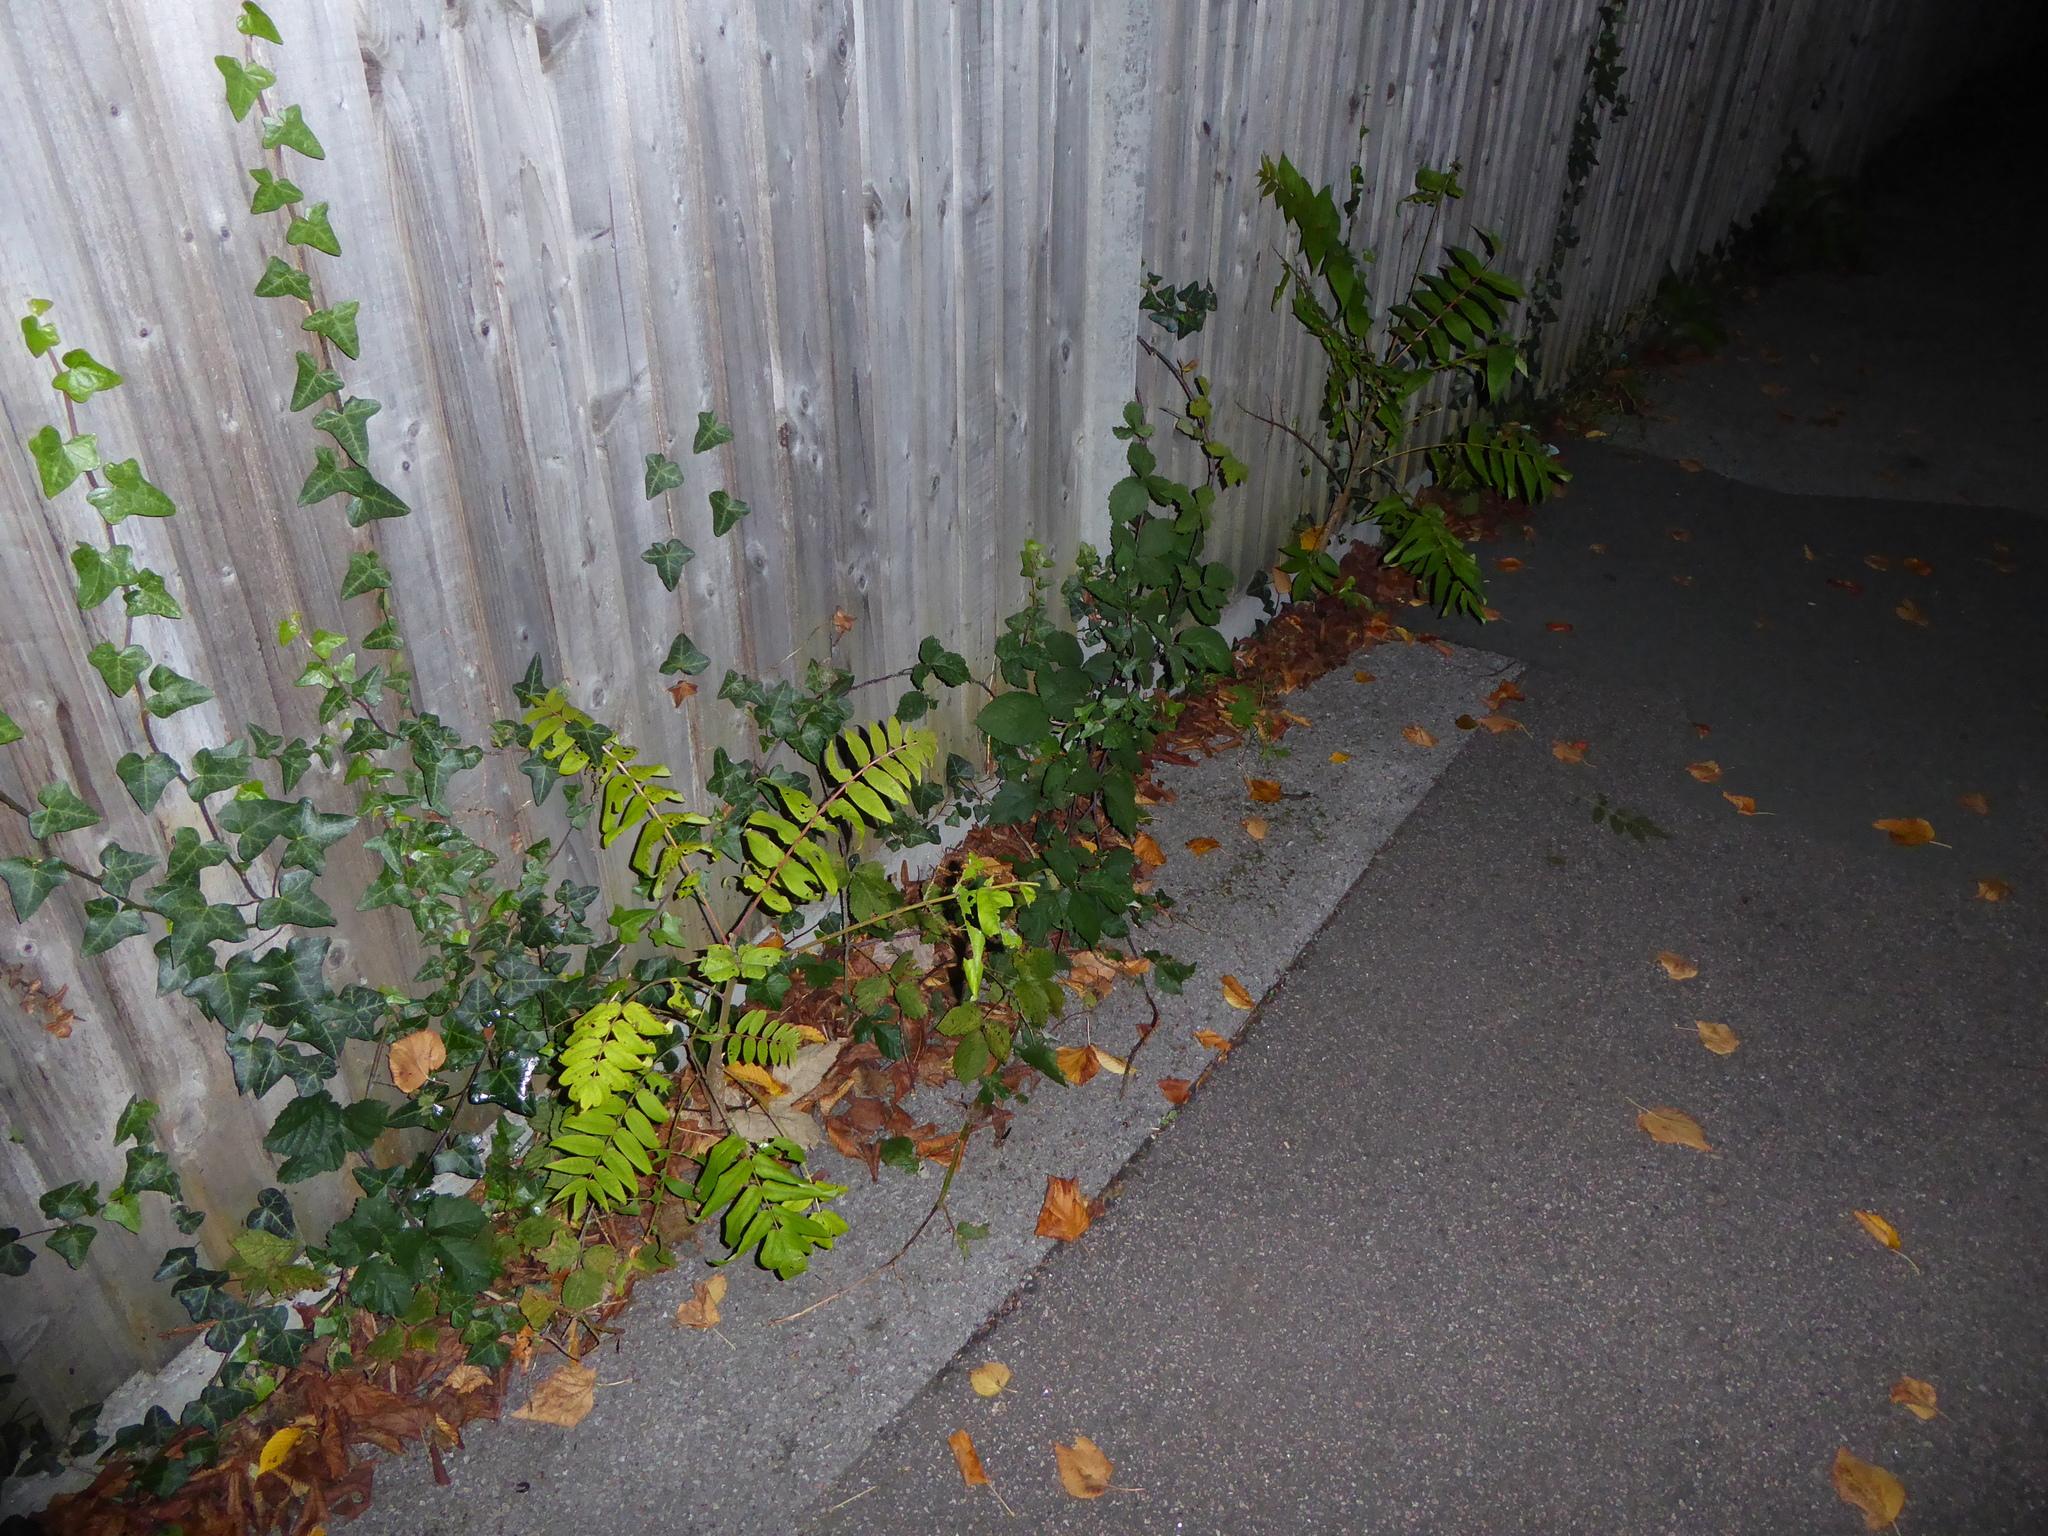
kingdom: Plantae
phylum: Tracheophyta
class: Magnoliopsida
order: Sapindales
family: Simaroubaceae
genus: Ailanthus
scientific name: Ailanthus altissima
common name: Tree-of-heaven
